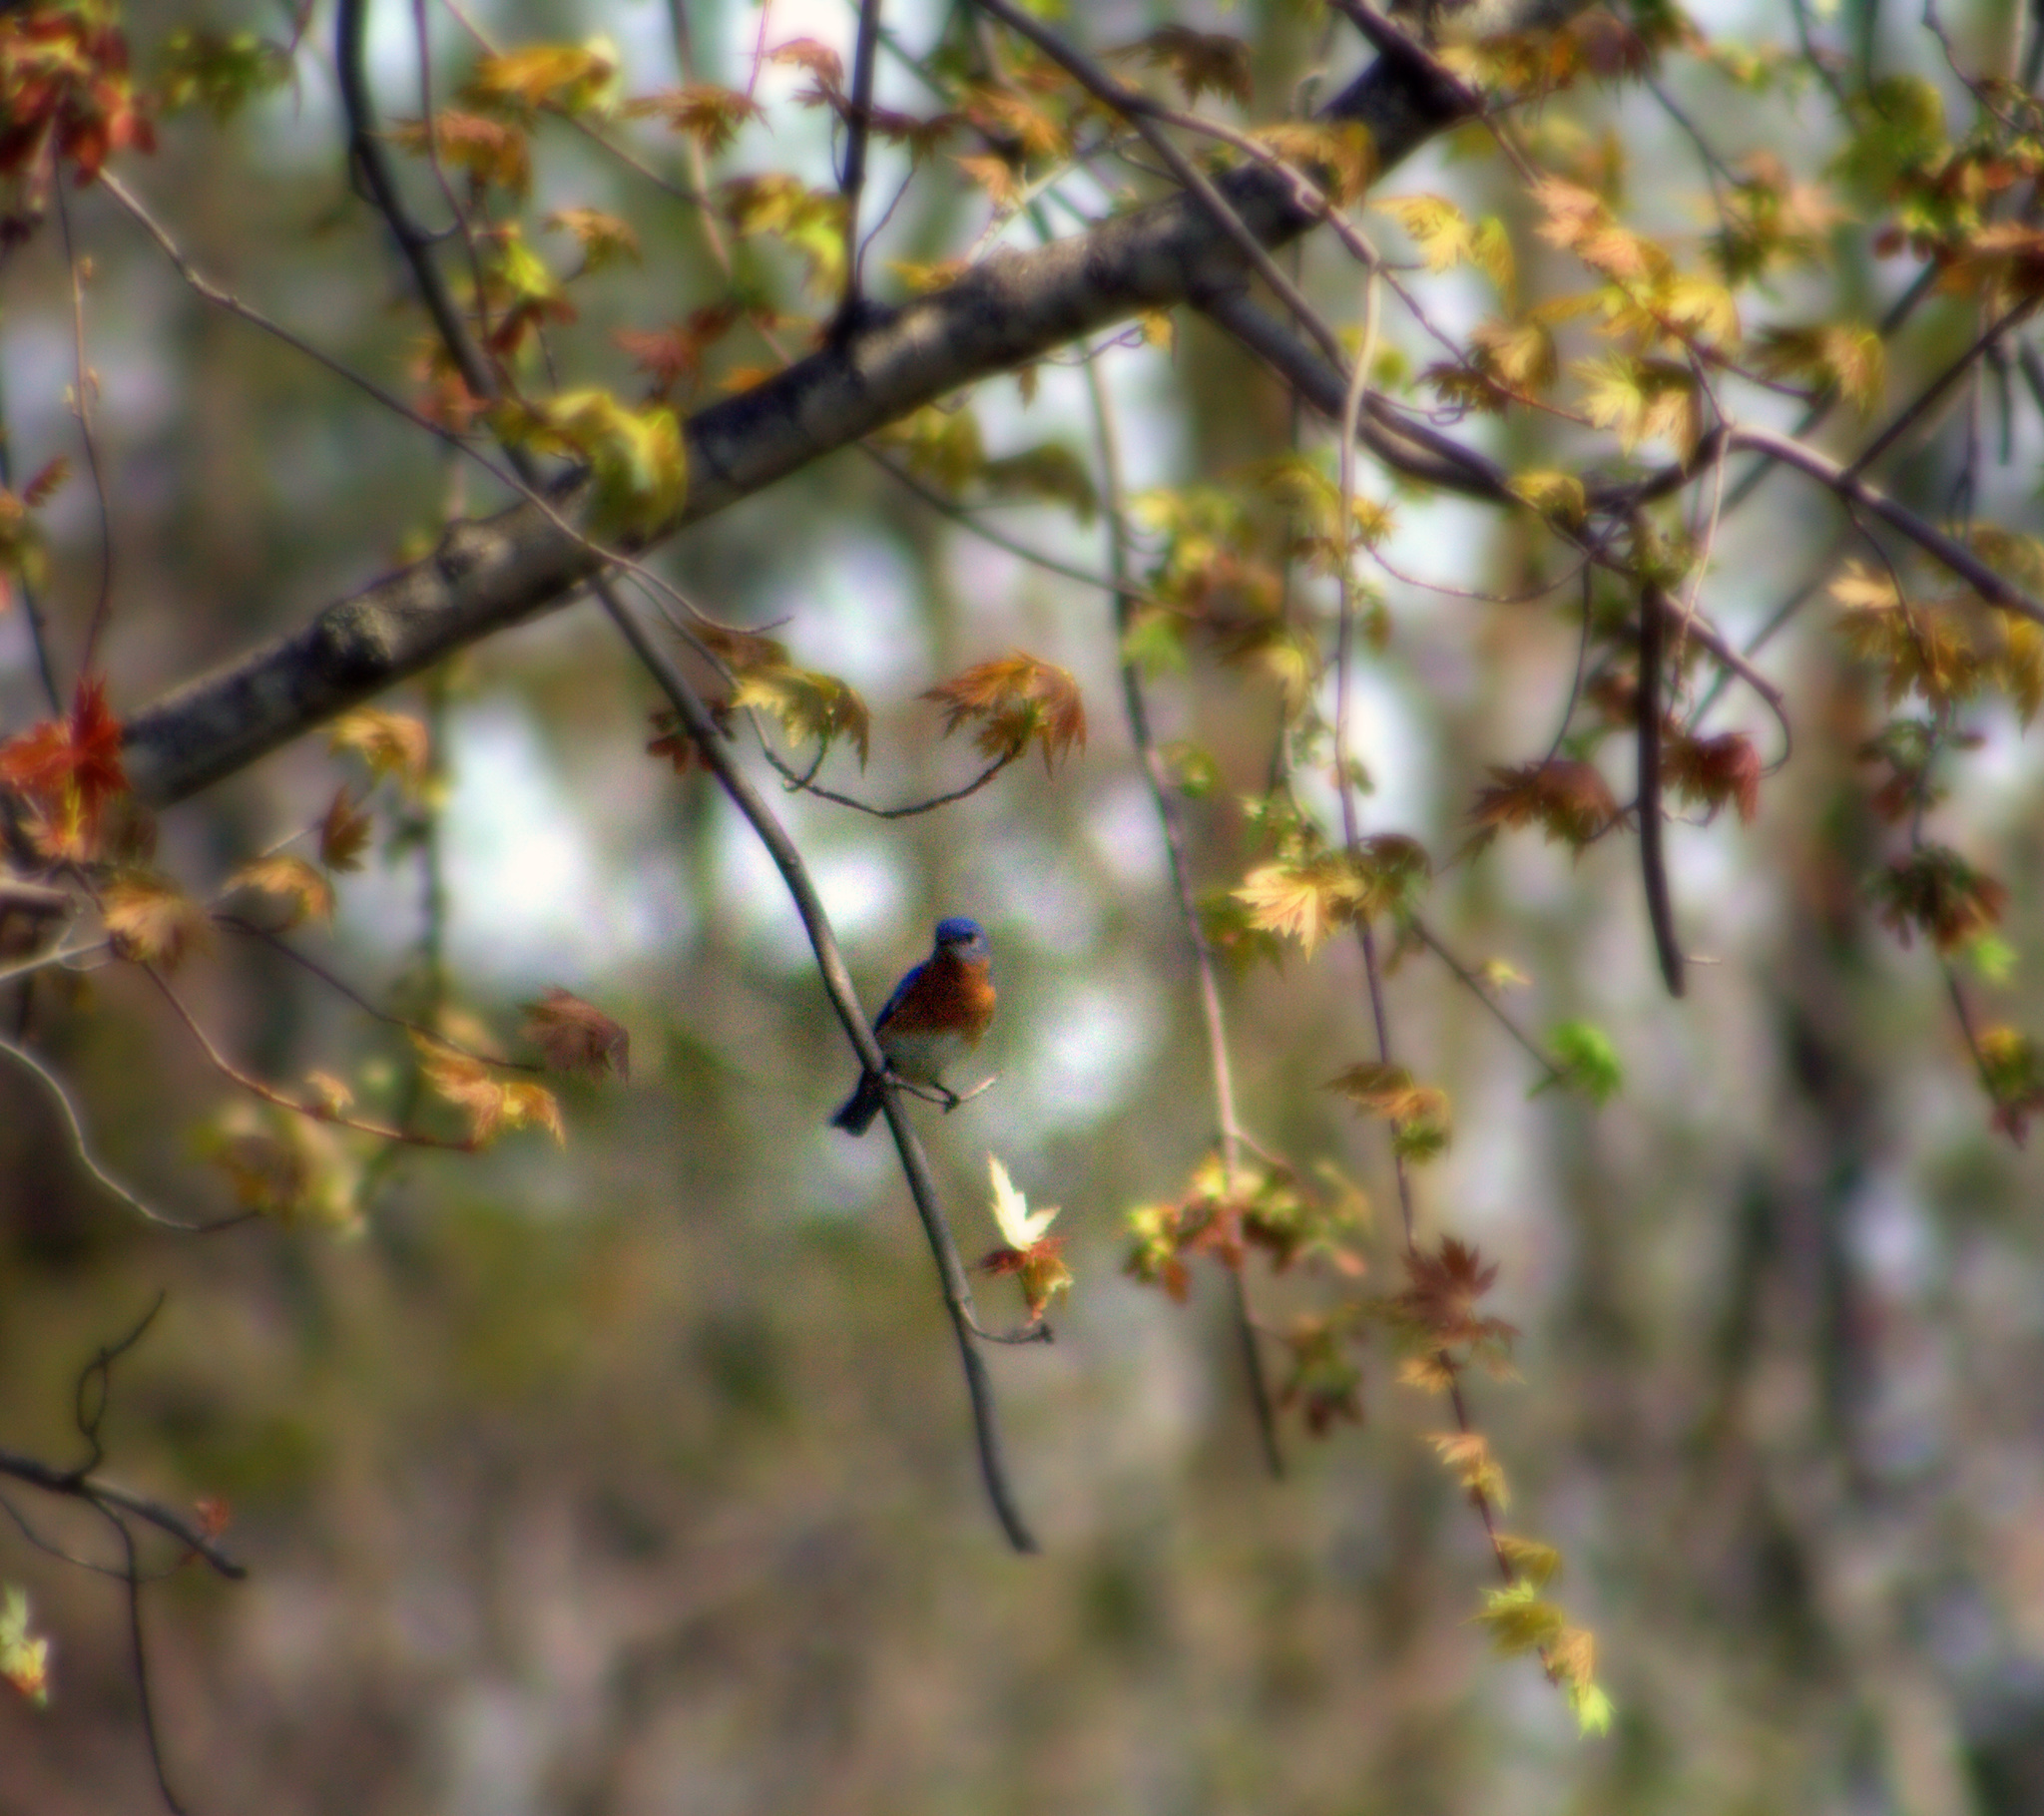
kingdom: Animalia
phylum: Chordata
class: Aves
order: Passeriformes
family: Turdidae
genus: Sialia
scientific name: Sialia sialis
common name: Eastern bluebird
